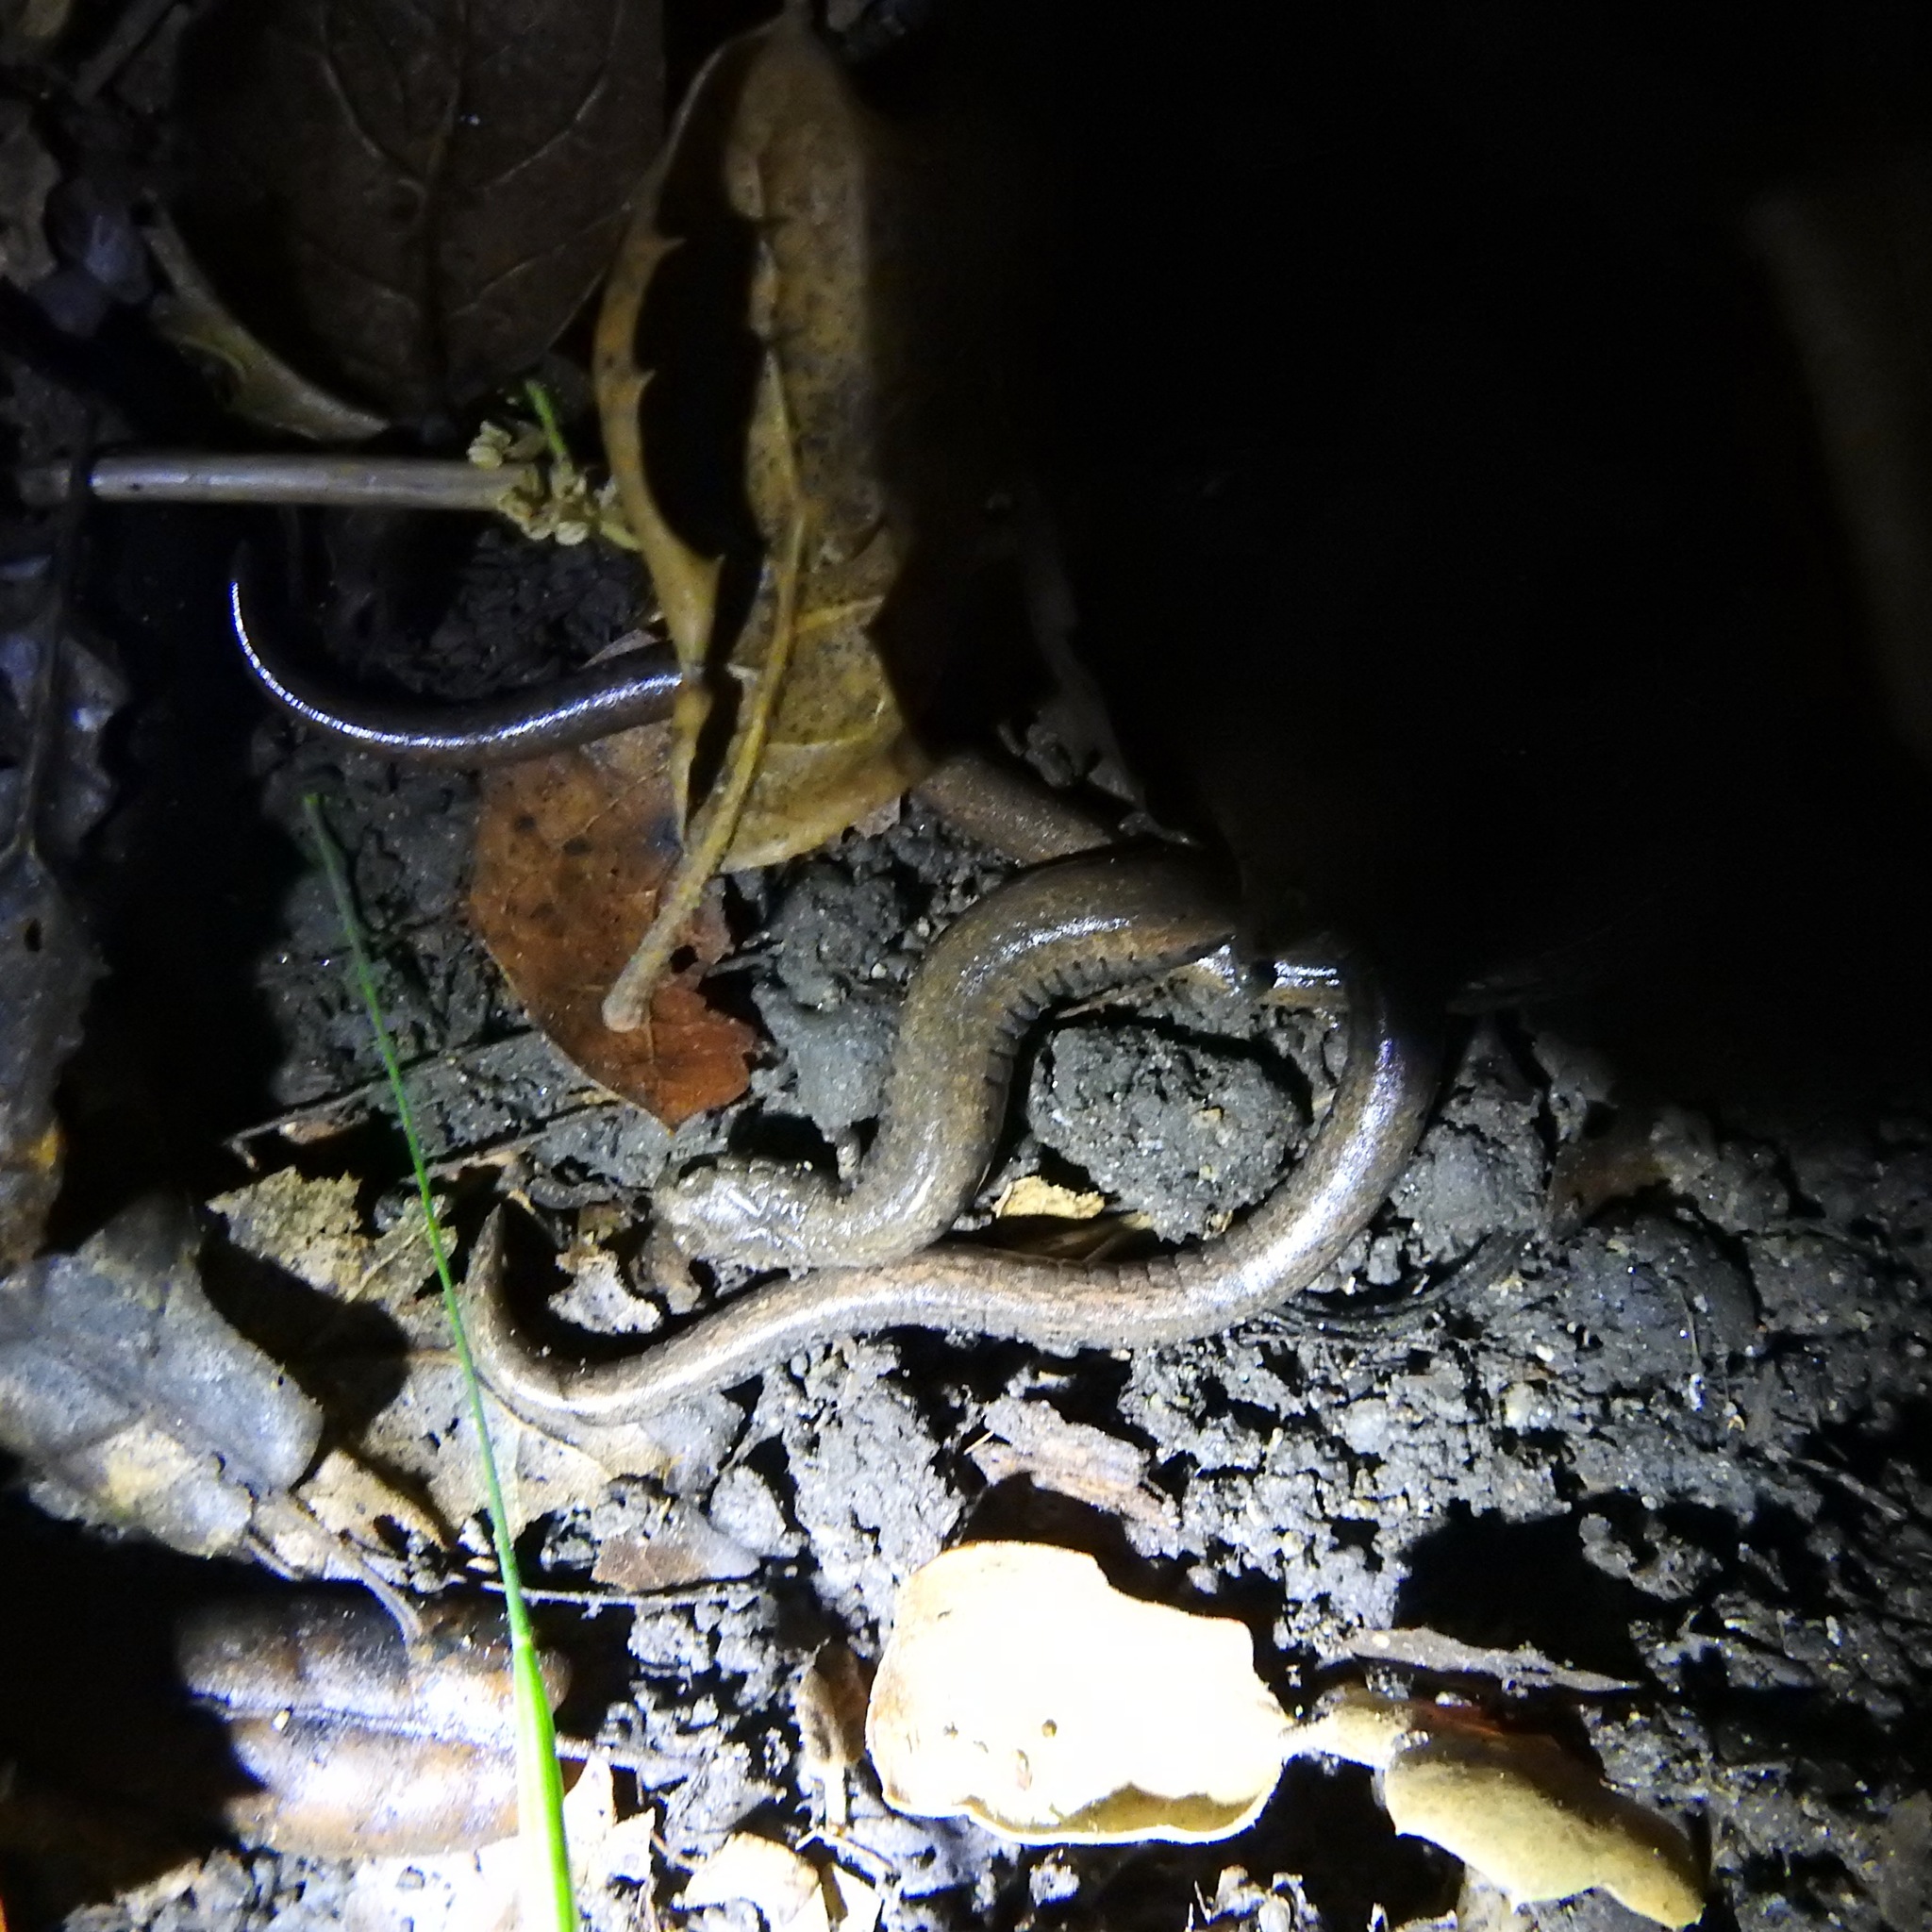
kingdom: Animalia
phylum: Chordata
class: Amphibia
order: Caudata
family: Plethodontidae
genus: Batrachoseps
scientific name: Batrachoseps gavilanensis
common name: Gabilan mountains slender salamander
